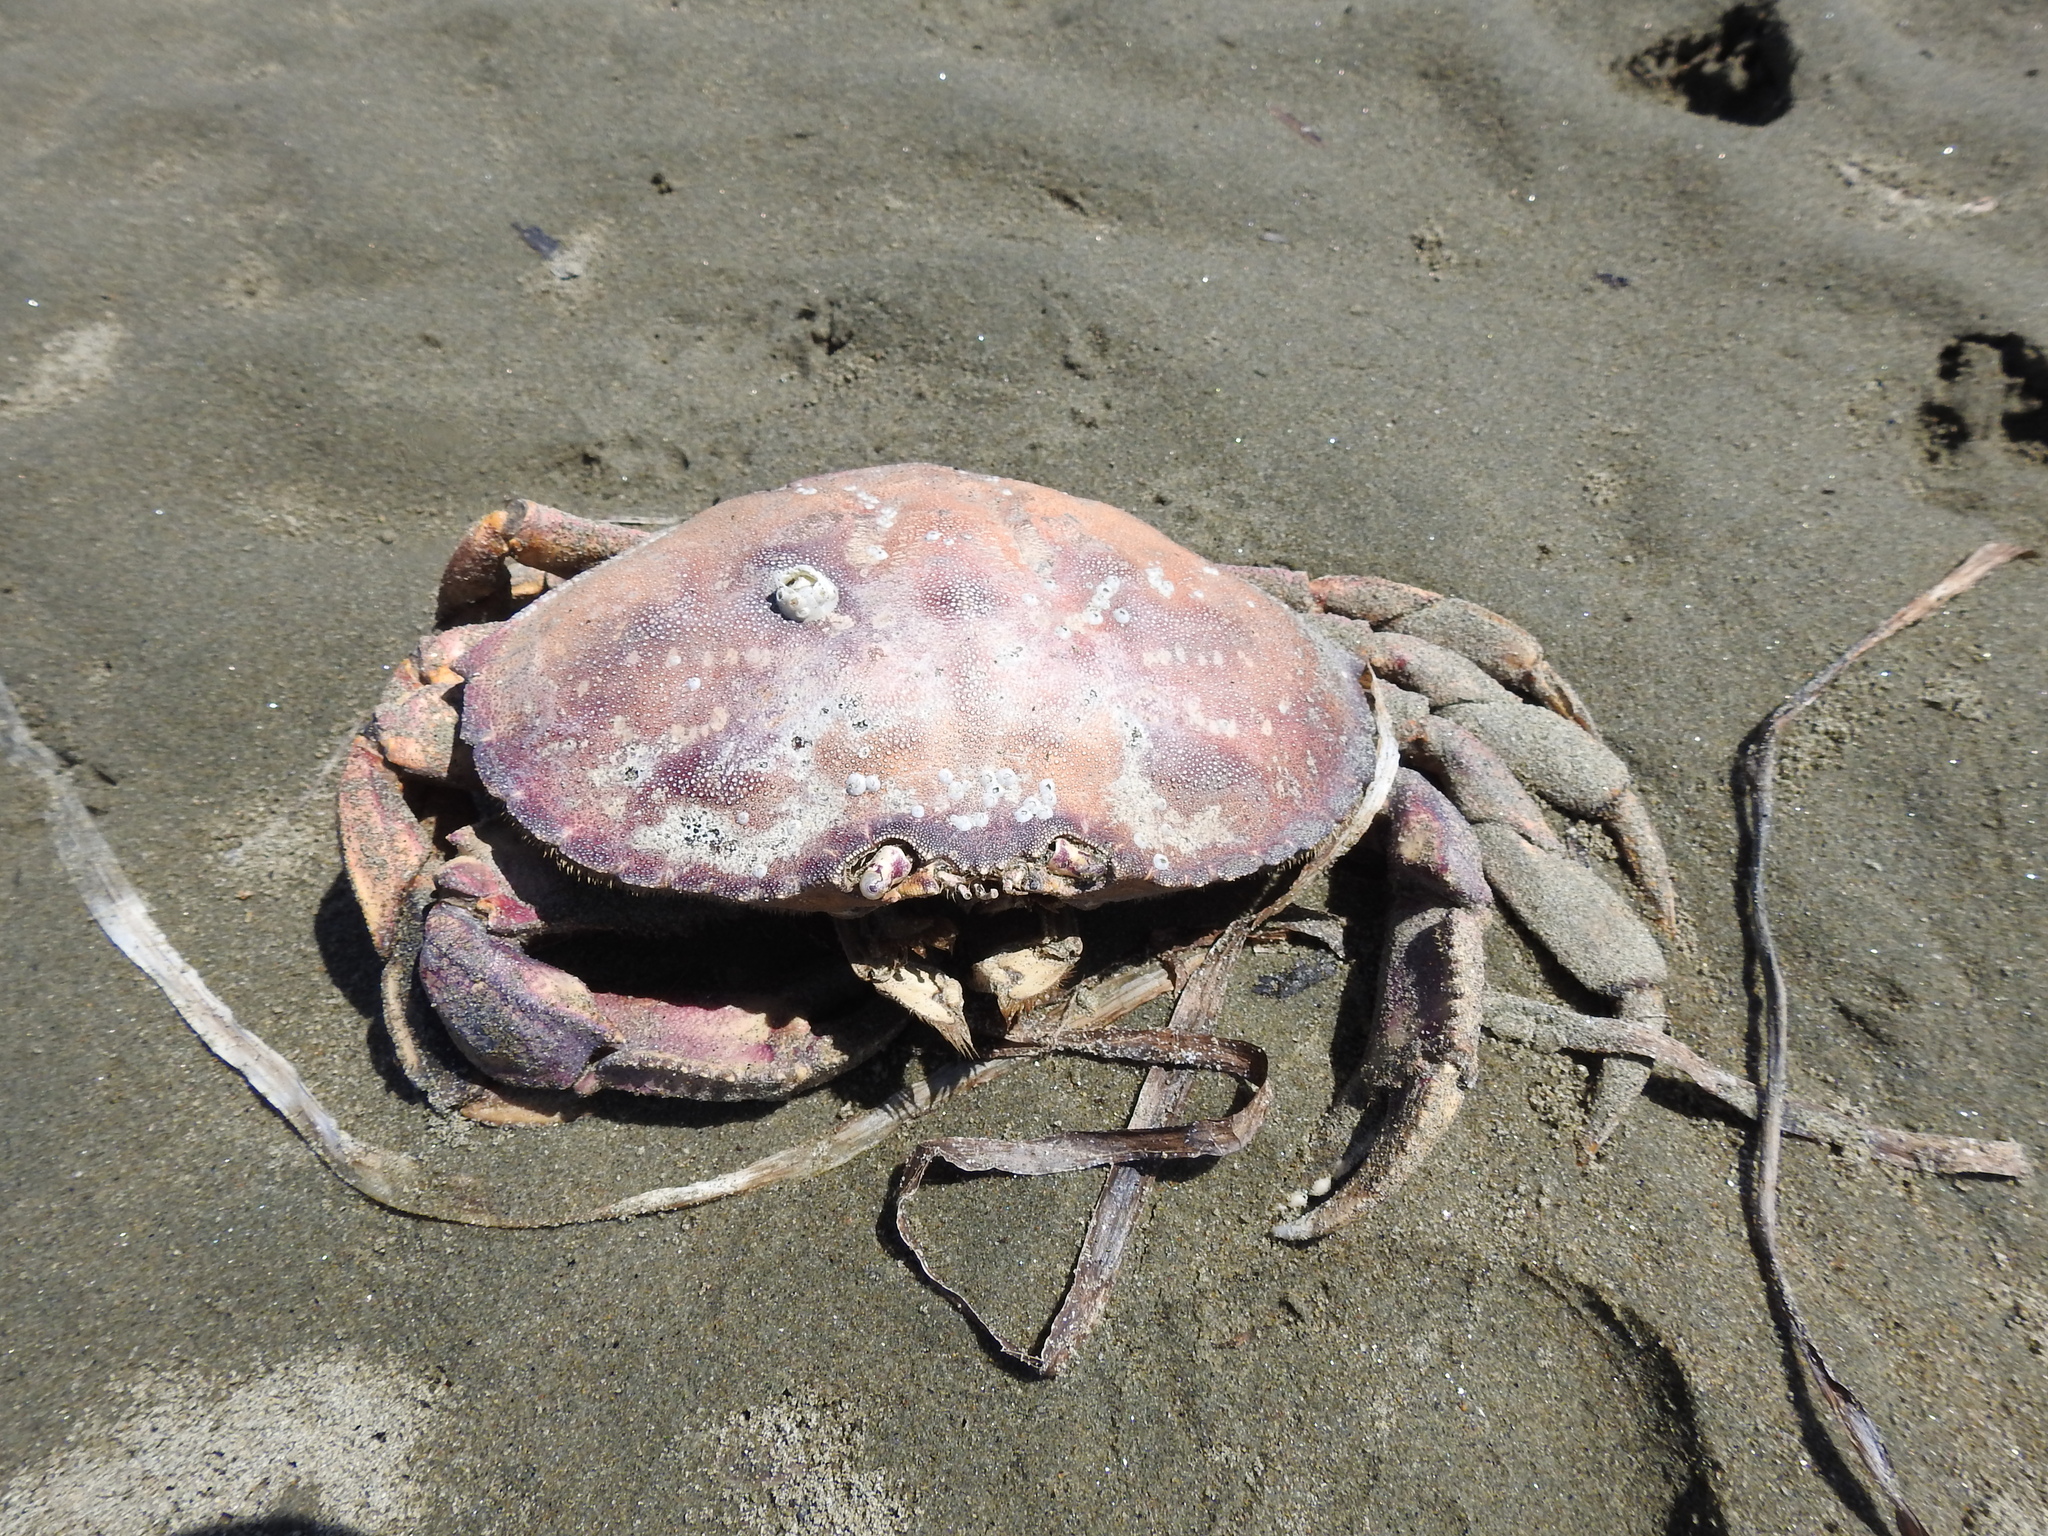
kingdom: Animalia
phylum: Arthropoda
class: Malacostraca
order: Decapoda
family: Cancridae
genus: Metacarcinus
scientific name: Metacarcinus magister
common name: Californian crab
